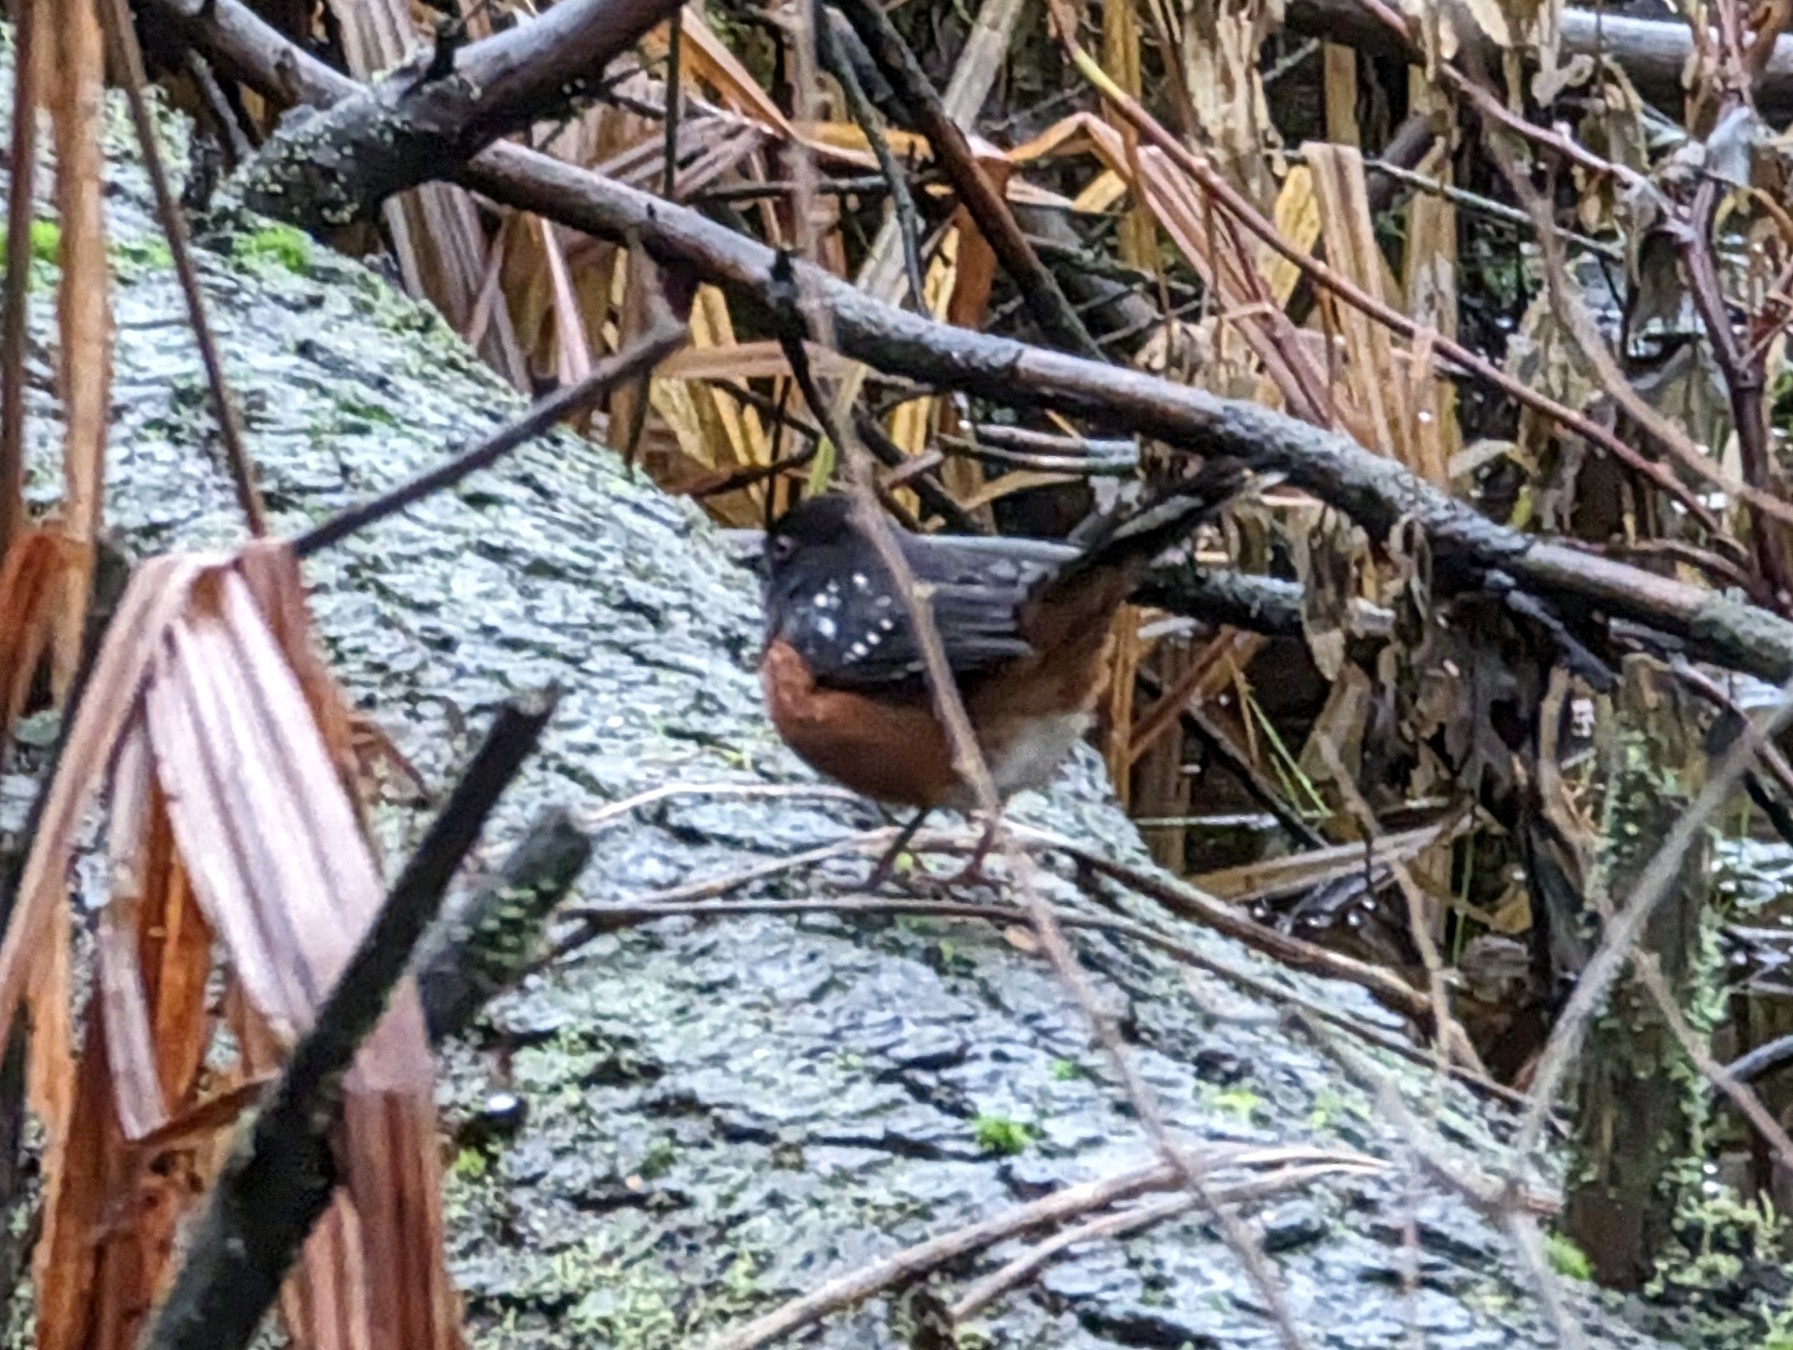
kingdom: Animalia
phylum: Chordata
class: Aves
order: Passeriformes
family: Passerellidae
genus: Pipilo
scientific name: Pipilo maculatus
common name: Spotted towhee
